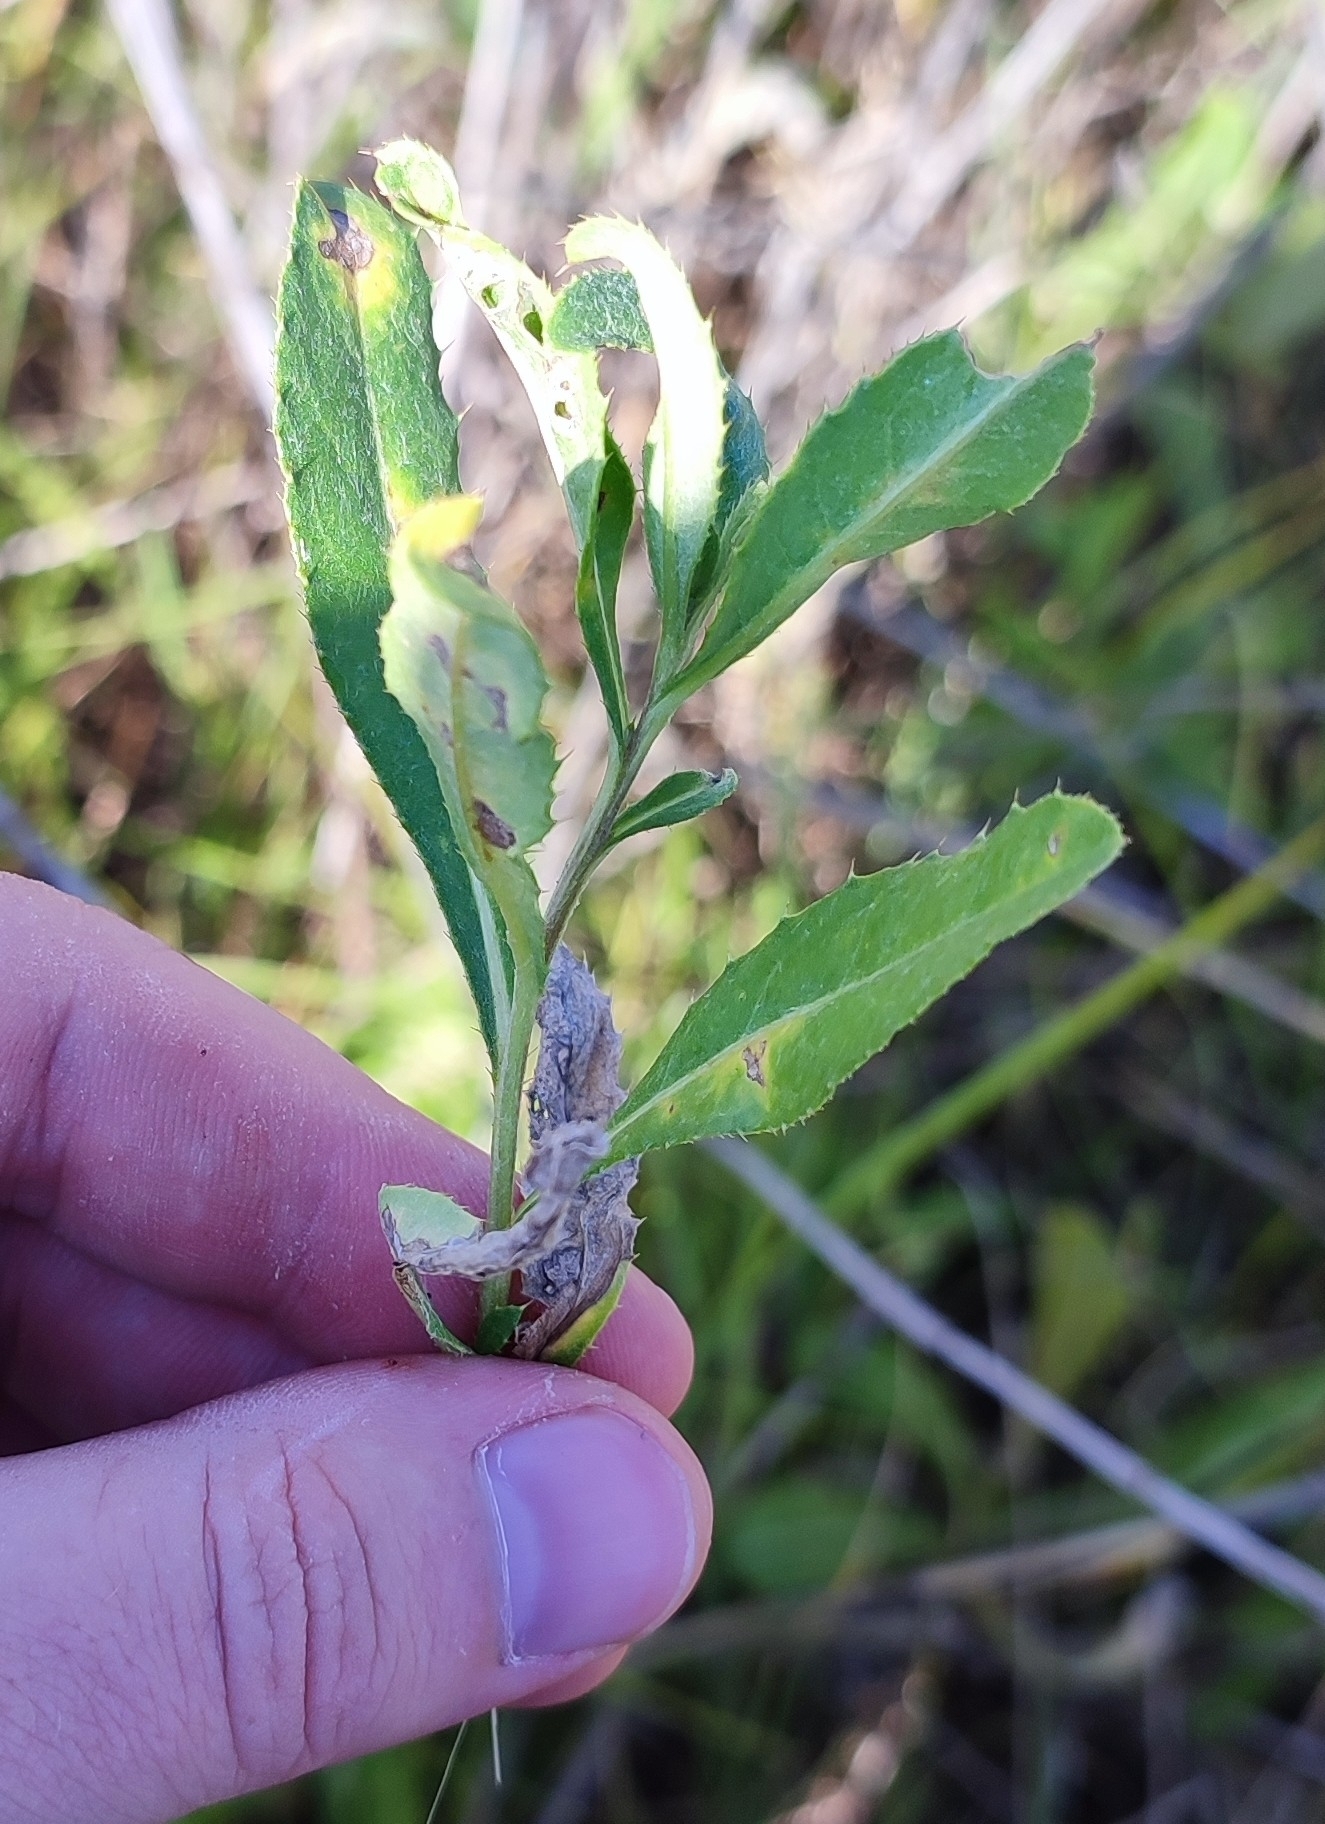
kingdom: Plantae
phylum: Tracheophyta
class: Magnoliopsida
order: Asterales
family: Asteraceae
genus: Cirsium
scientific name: Cirsium arvense
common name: Creeping thistle
